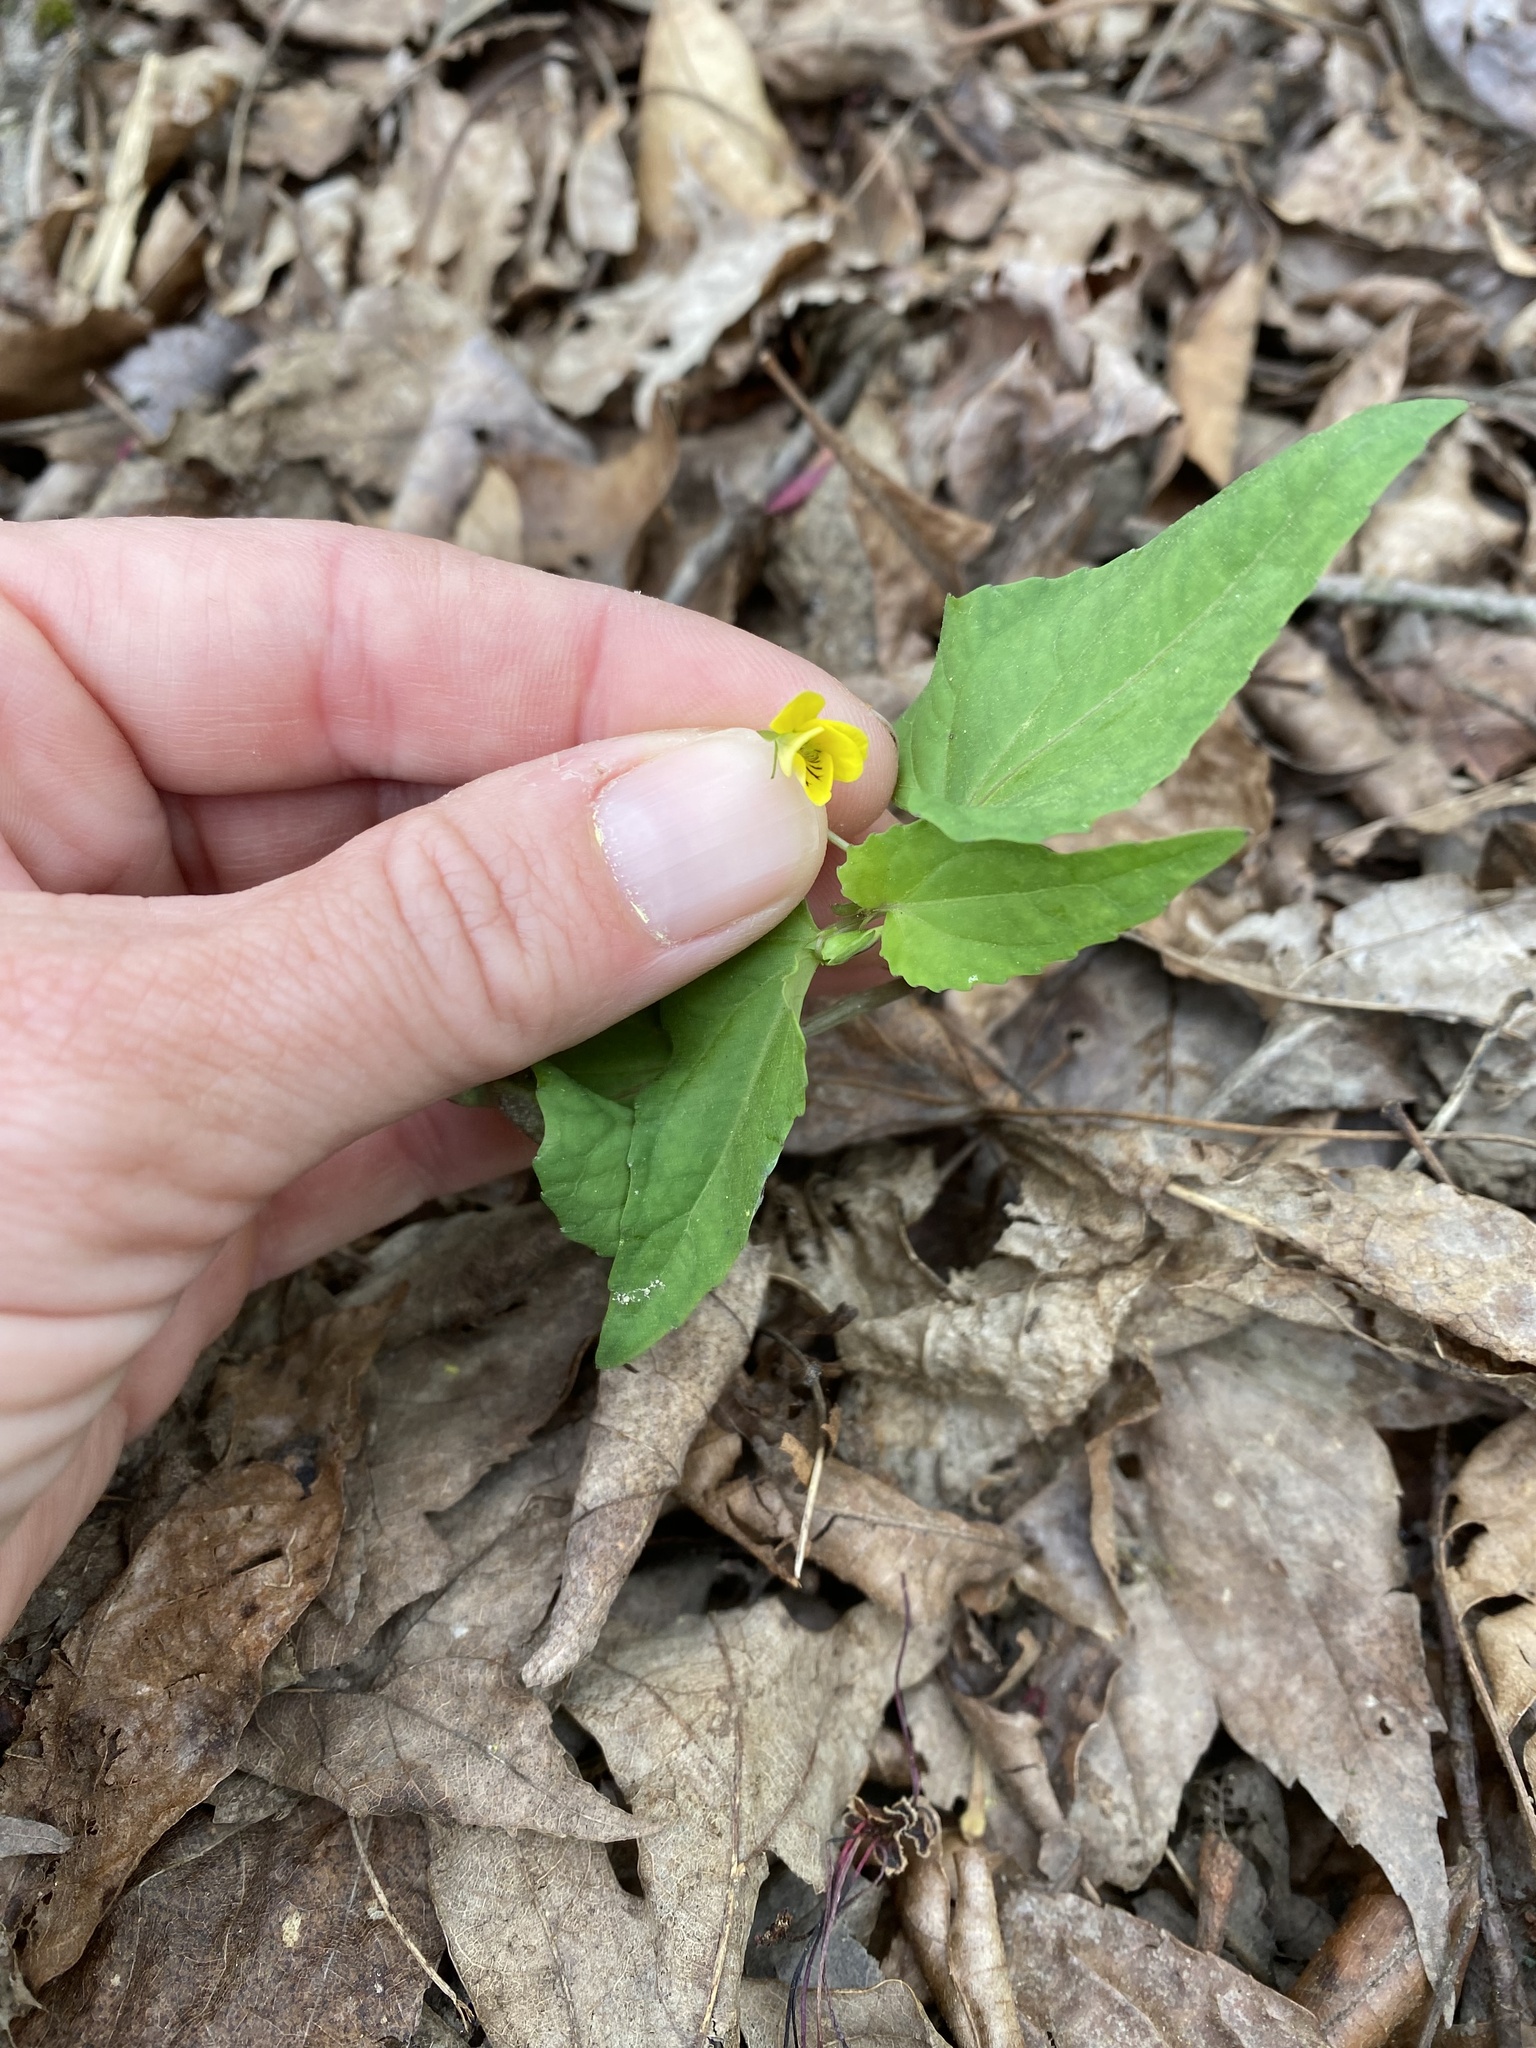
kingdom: Plantae
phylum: Tracheophyta
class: Magnoliopsida
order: Malpighiales
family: Violaceae
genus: Viola
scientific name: Viola hastata
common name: Spear-leaf violet
